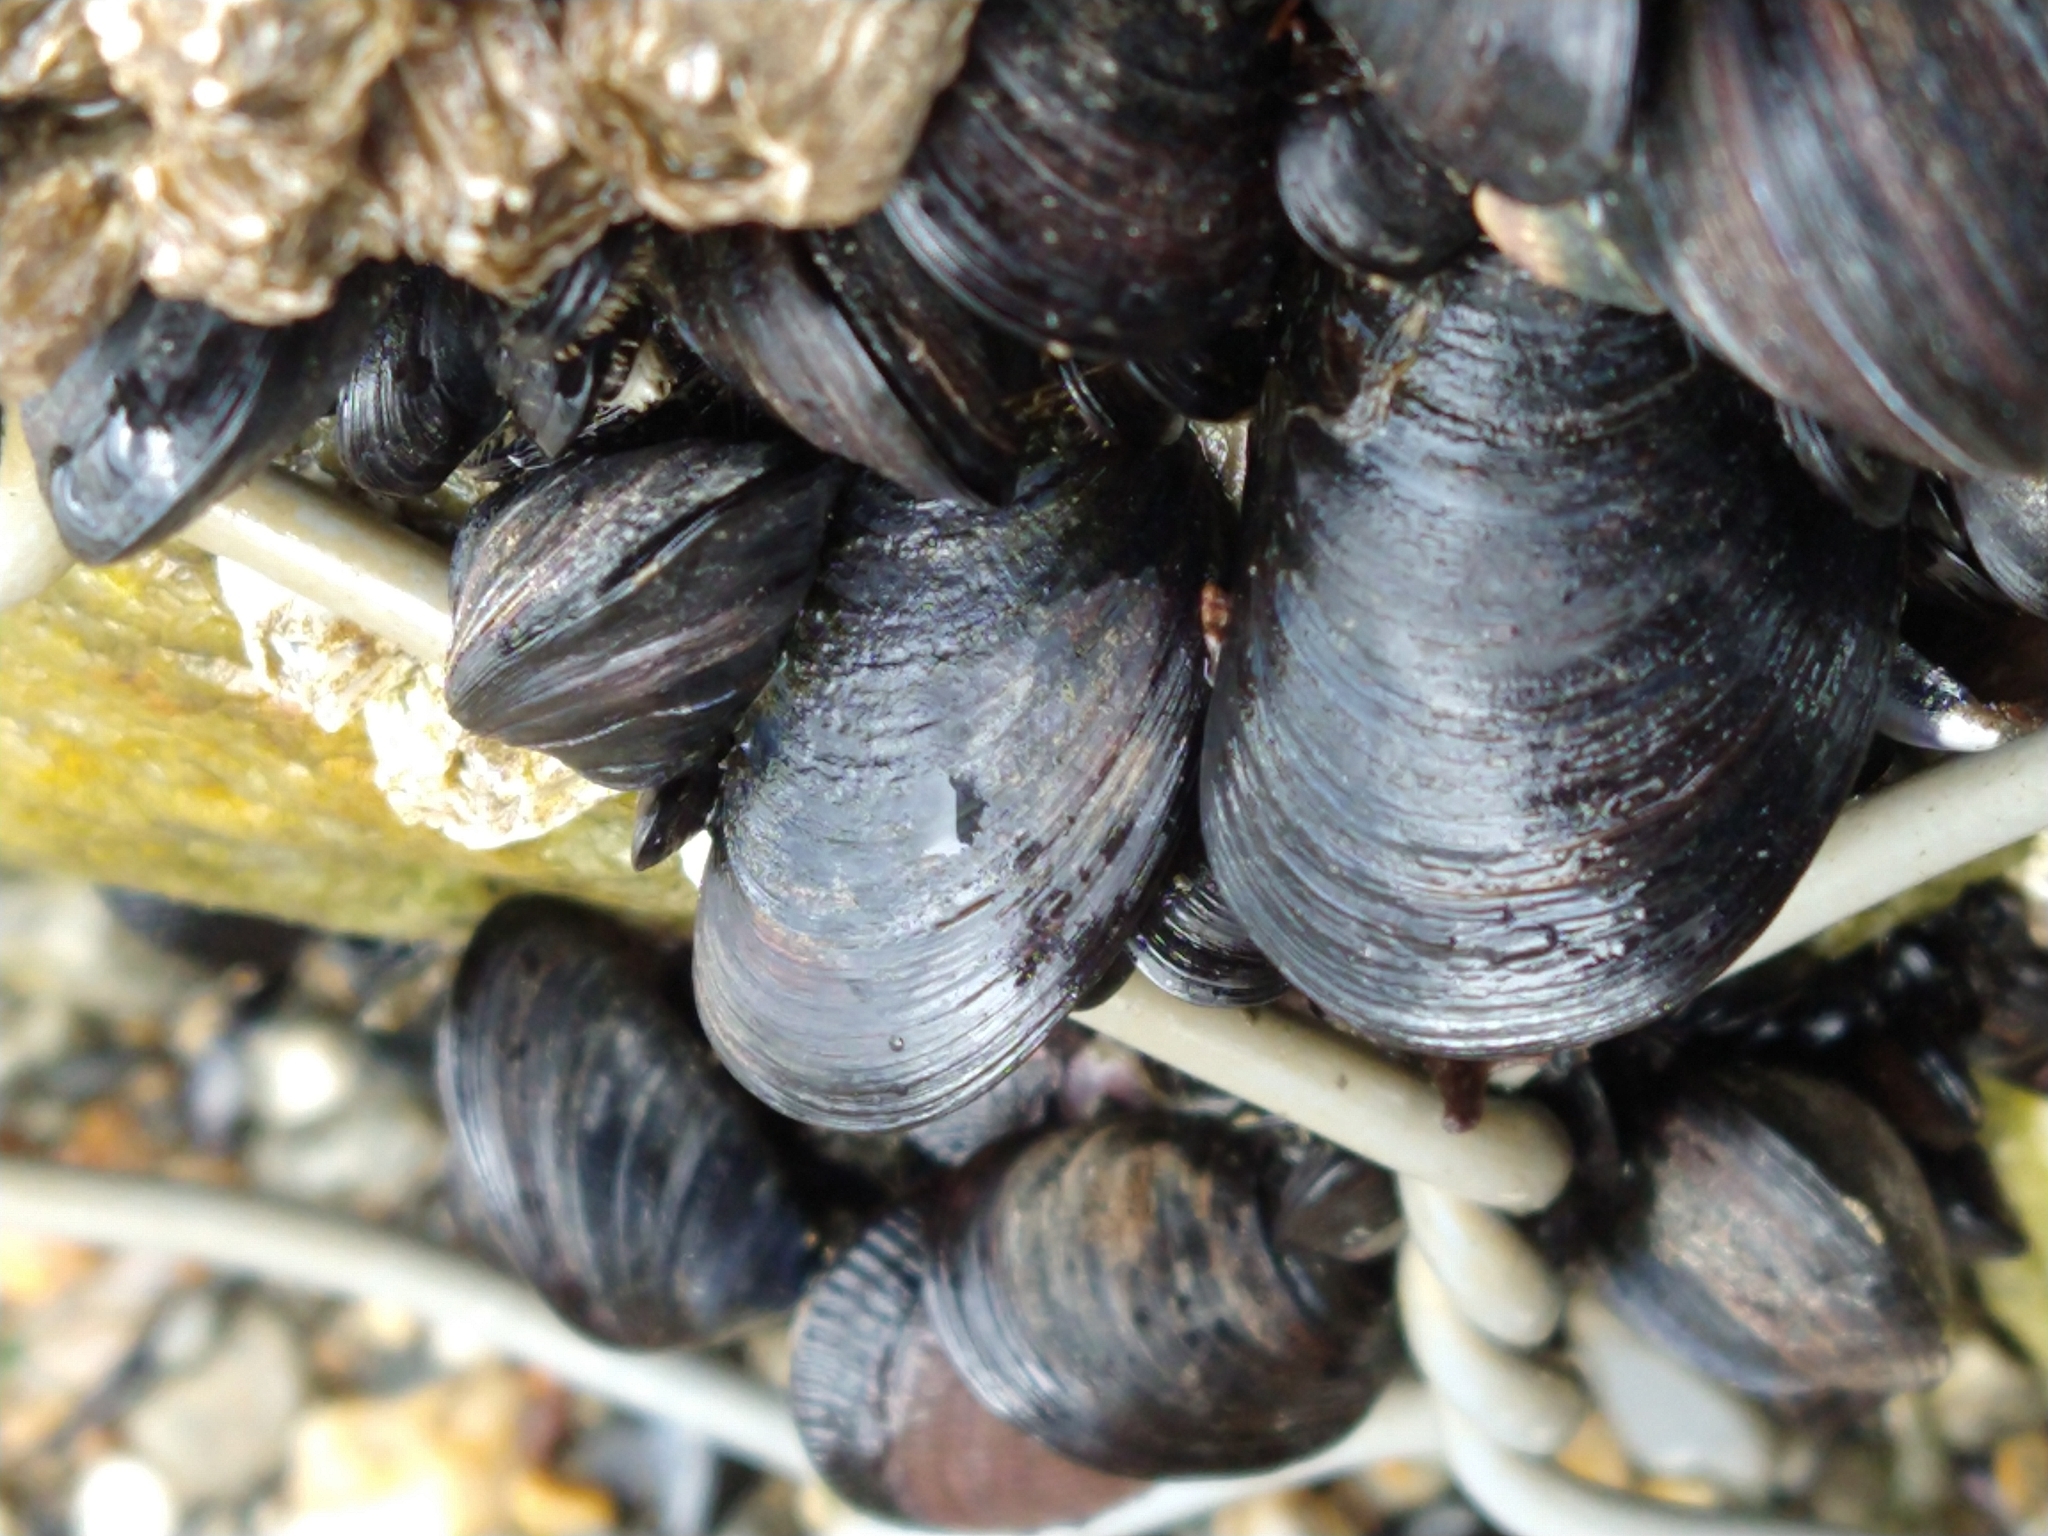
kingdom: Animalia
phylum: Mollusca
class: Bivalvia
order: Mytilida
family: Mytilidae
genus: Mytilus
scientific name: Mytilus chilensis
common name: Chilean mussel
